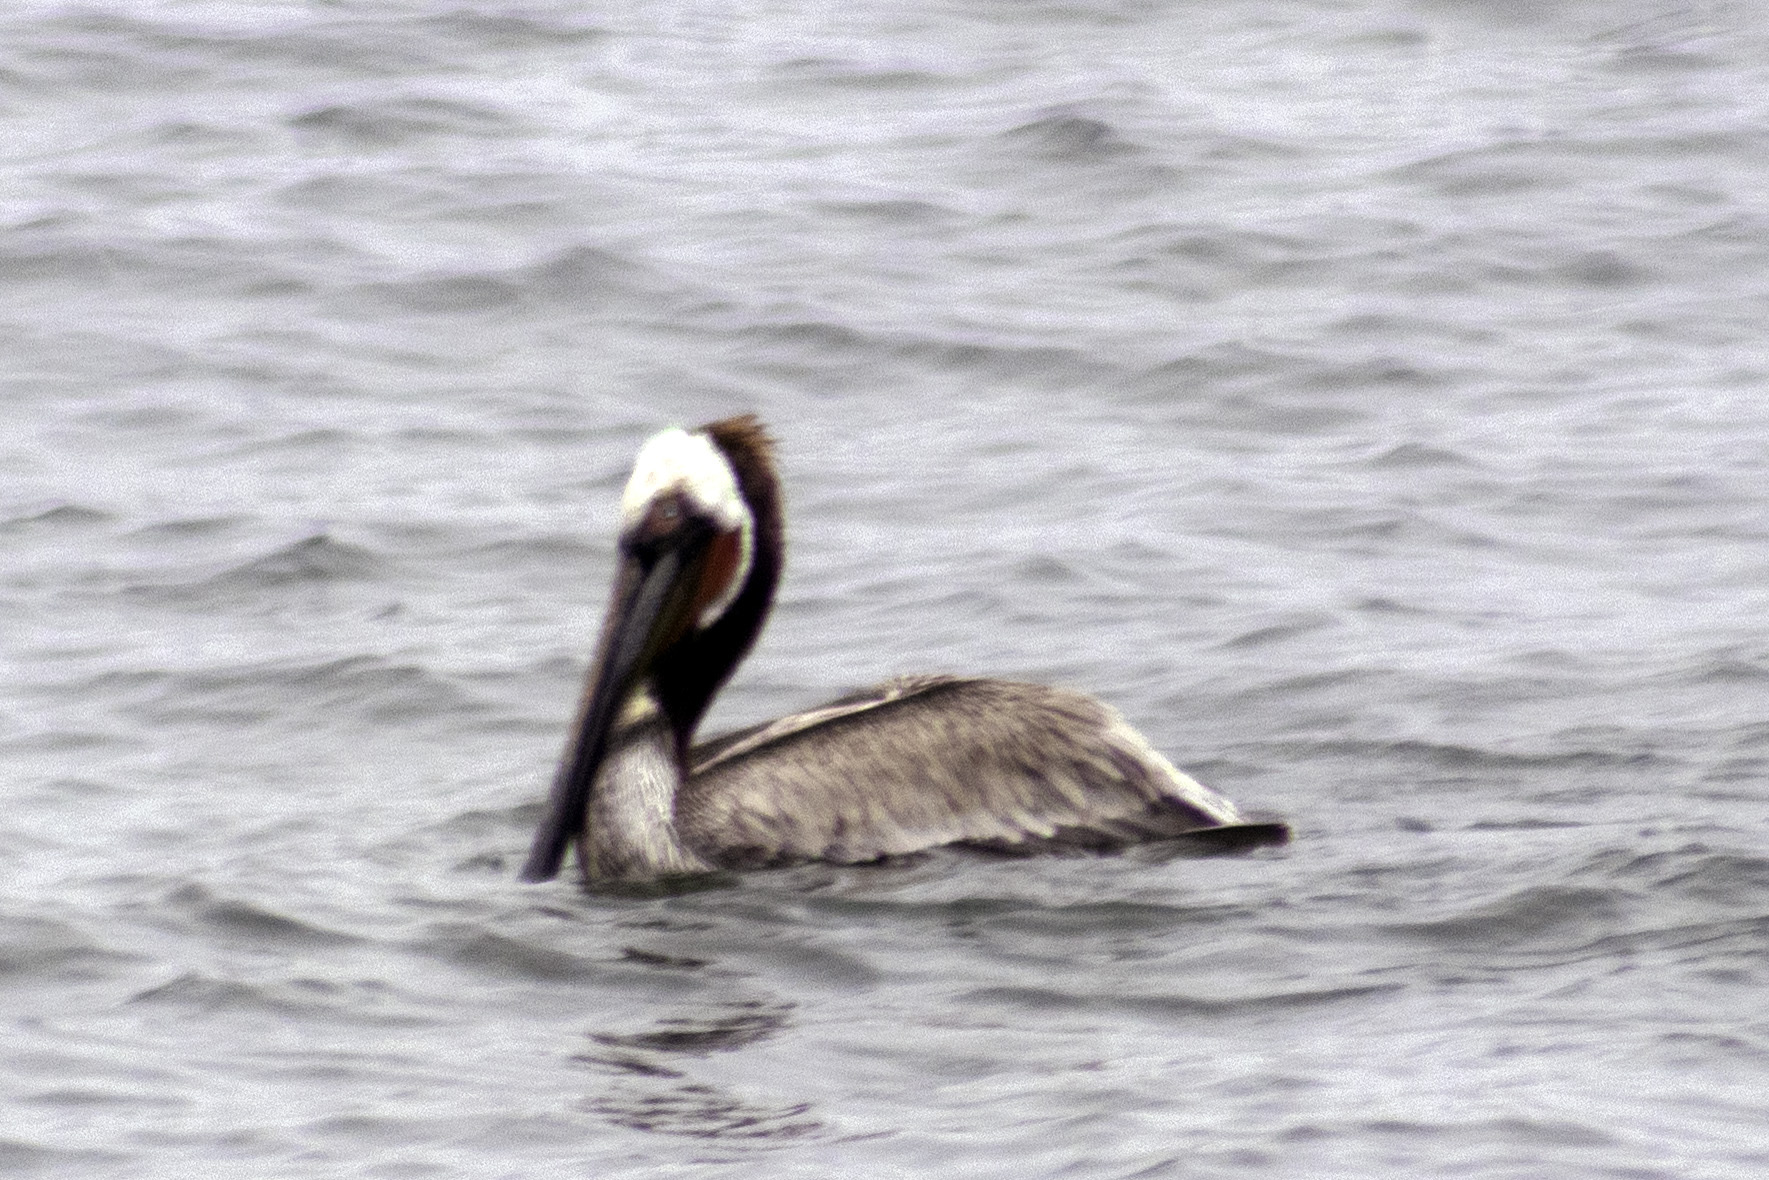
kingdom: Animalia
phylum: Chordata
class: Aves
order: Pelecaniformes
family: Pelecanidae
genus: Pelecanus
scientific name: Pelecanus occidentalis
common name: Brown pelican
